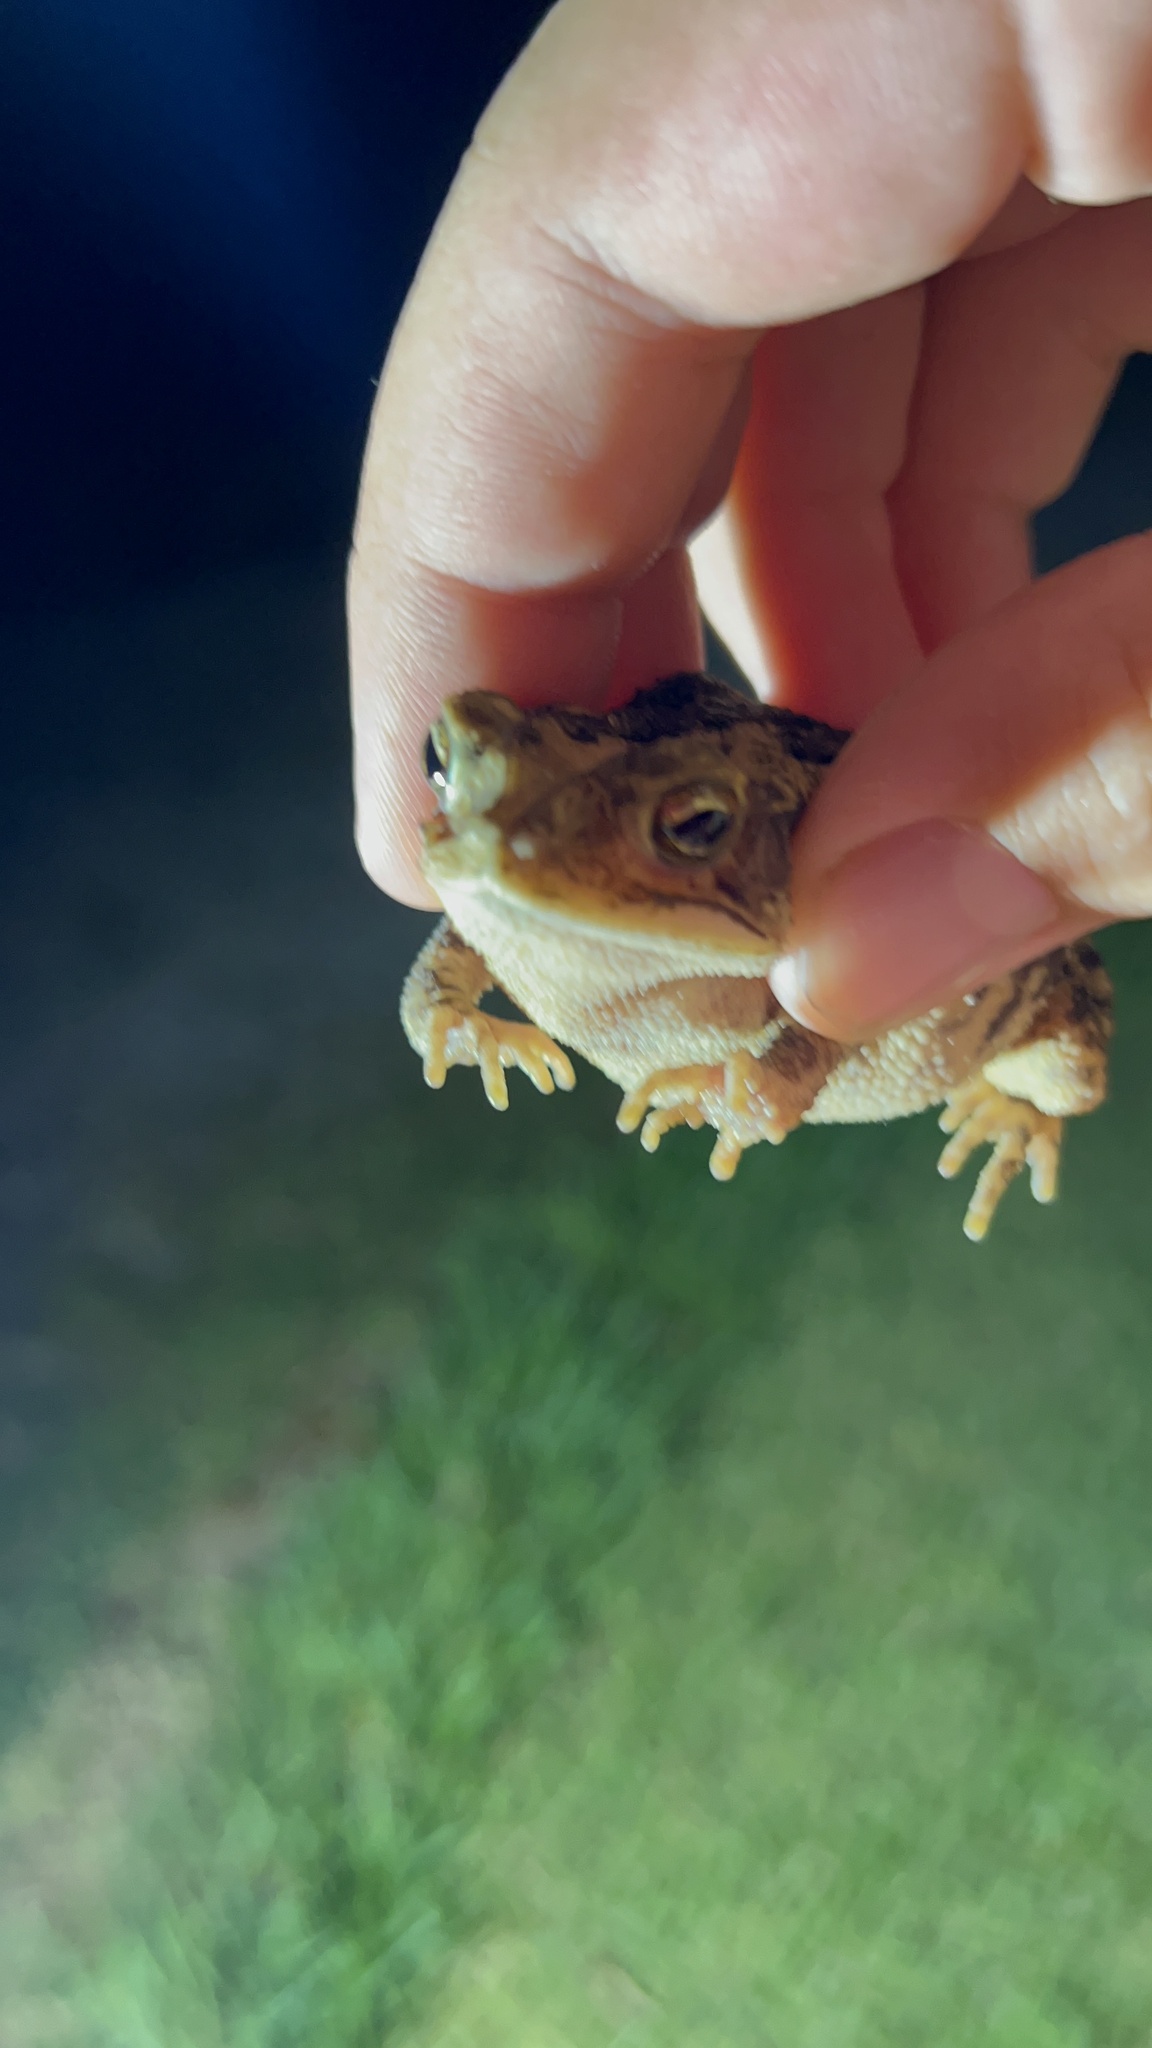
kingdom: Animalia
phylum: Chordata
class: Amphibia
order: Anura
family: Bufonidae
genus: Incilius
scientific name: Incilius nebulifer
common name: Gulf coast toad
